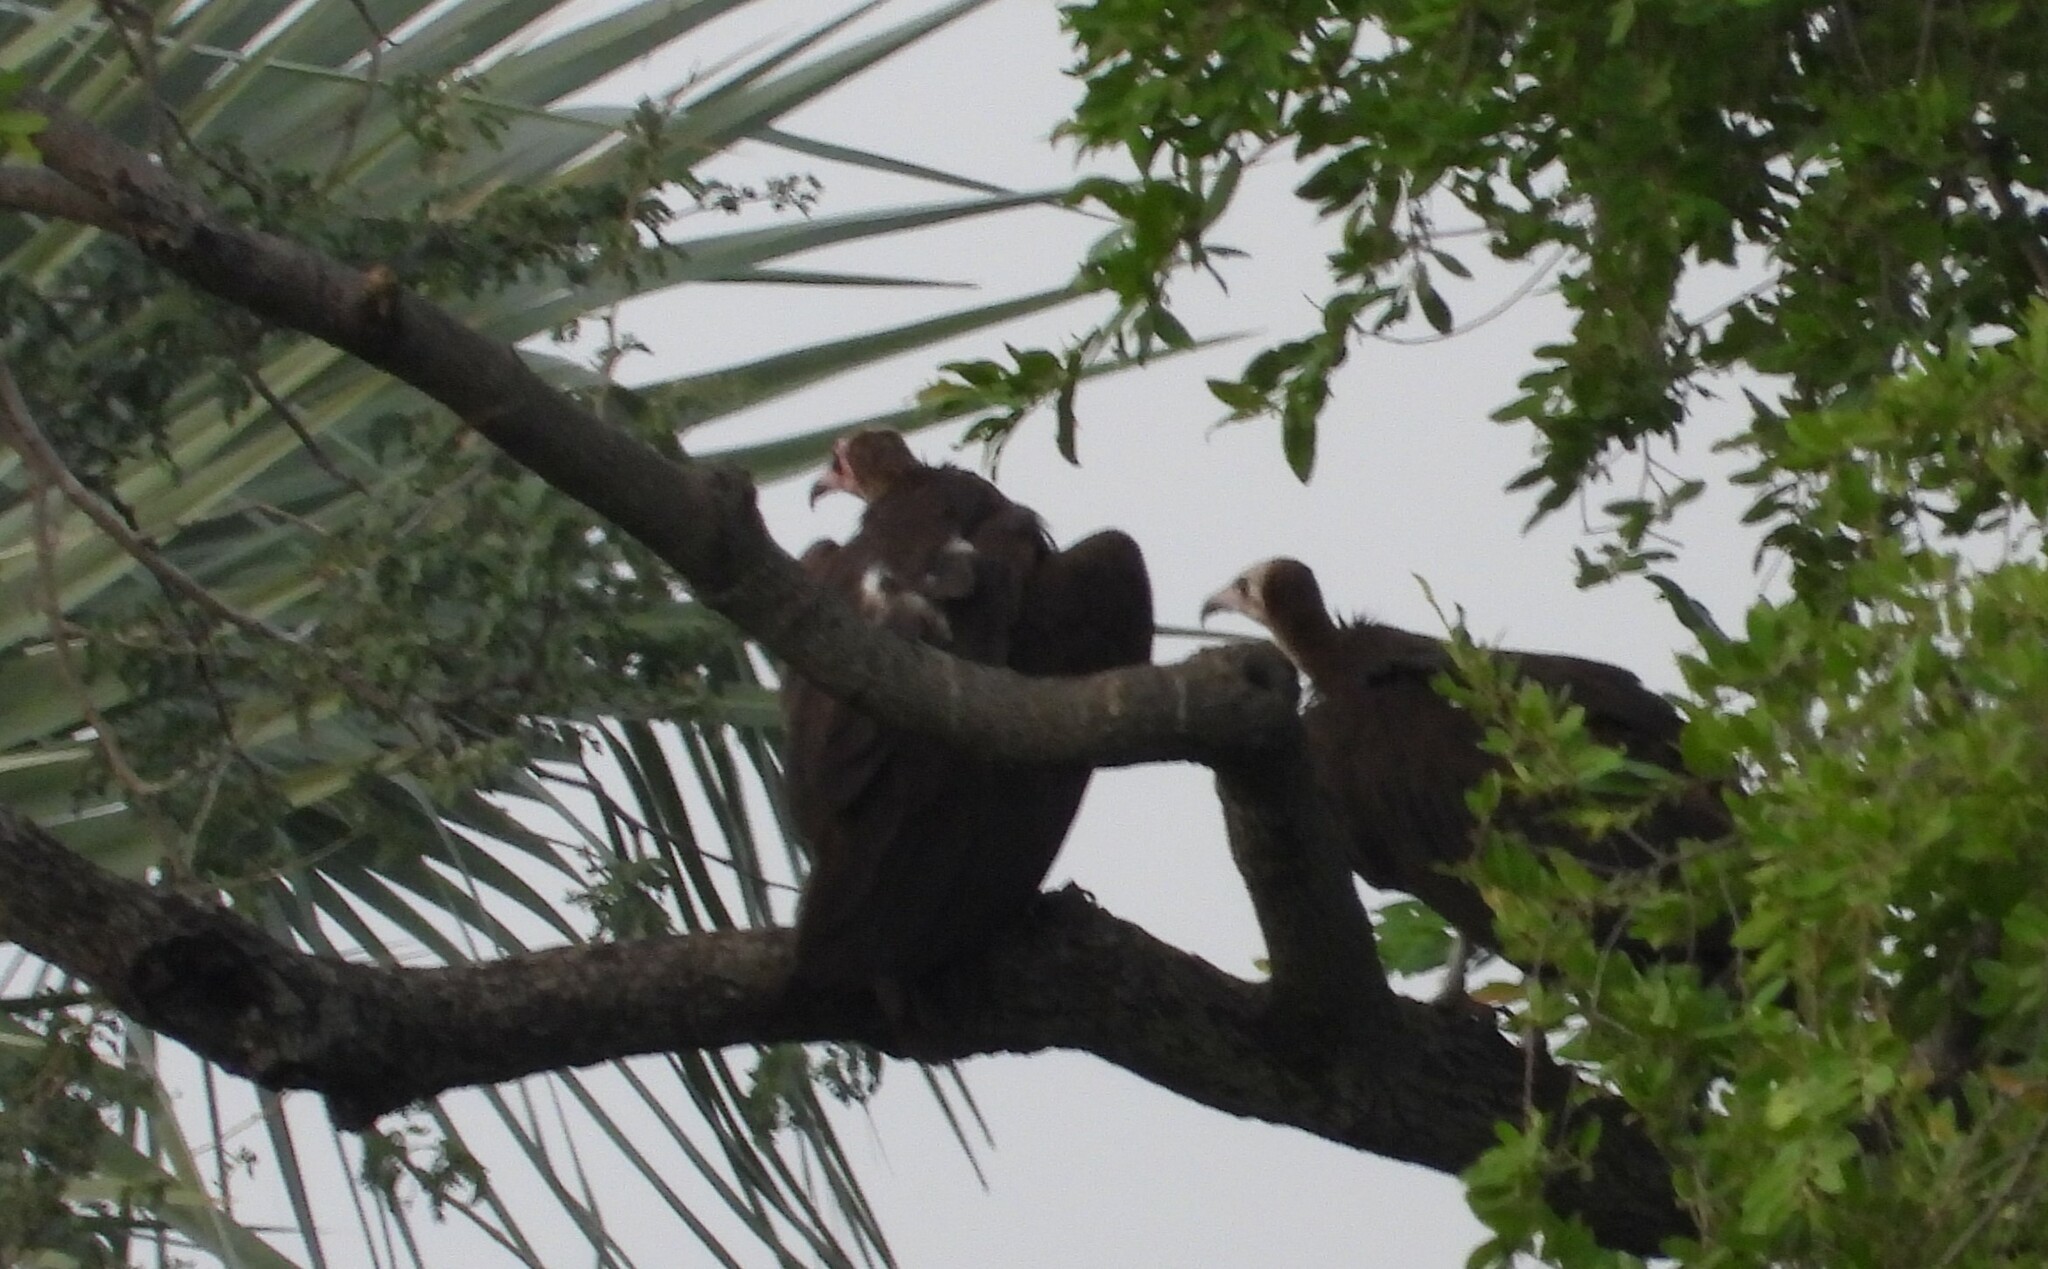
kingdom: Animalia
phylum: Chordata
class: Aves
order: Accipitriformes
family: Accipitridae
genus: Necrosyrtes
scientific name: Necrosyrtes monachus
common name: Hooded vulture
